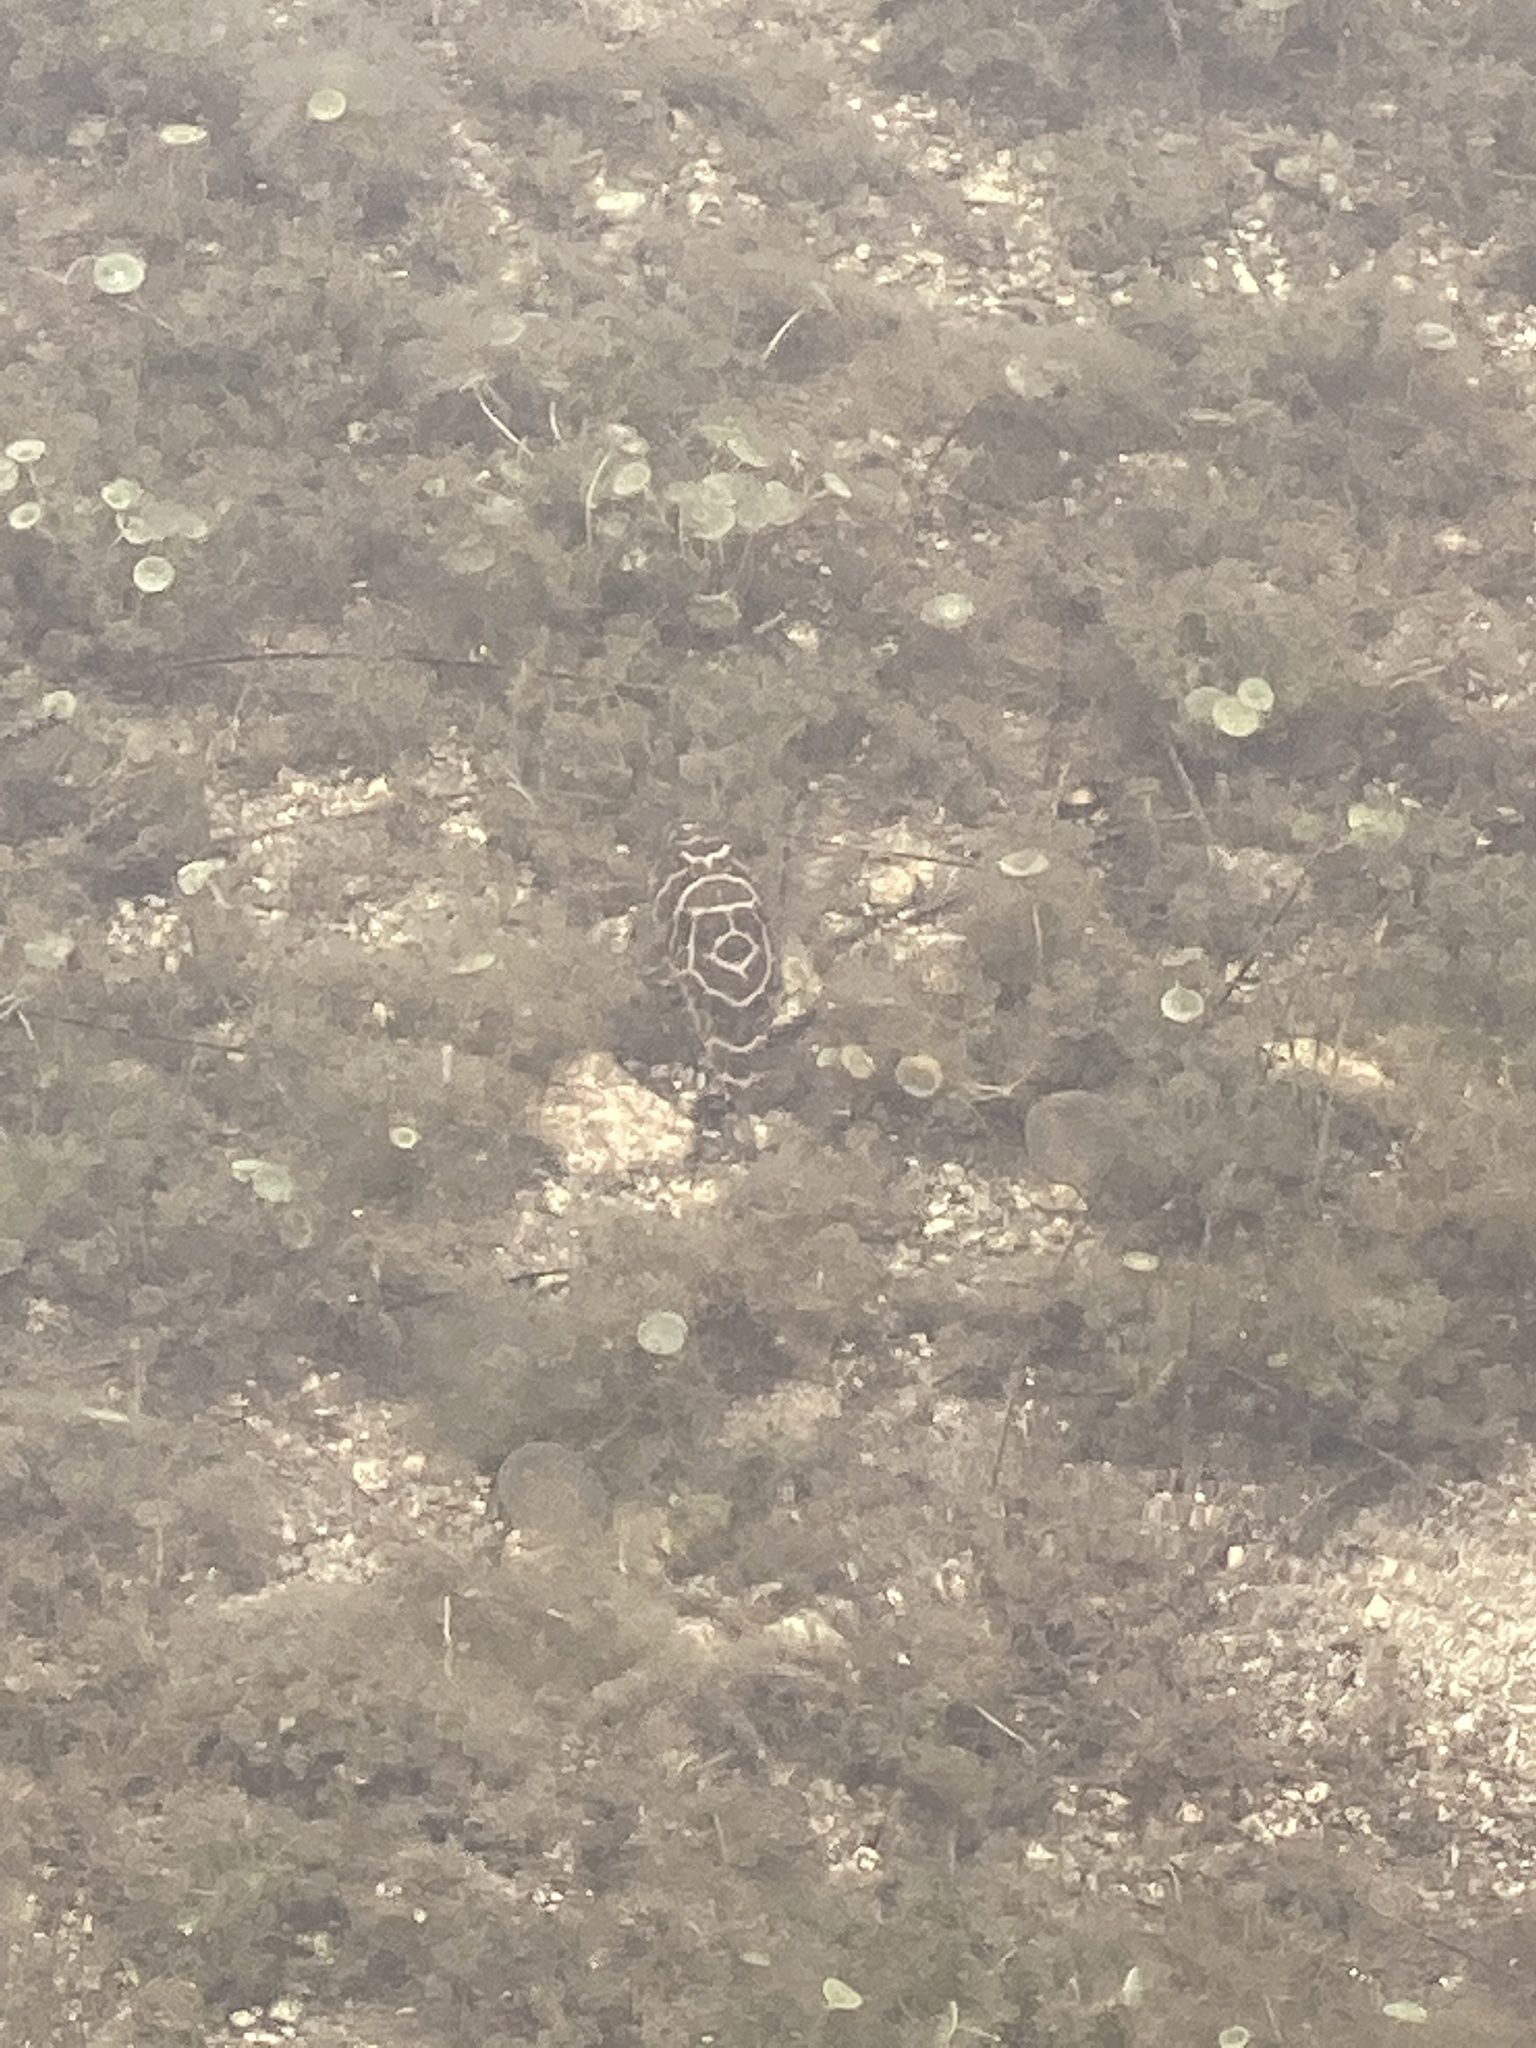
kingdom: Animalia
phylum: Chordata
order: Tetraodontiformes
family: Tetraodontidae
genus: Sphoeroides
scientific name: Sphoeroides testudineus
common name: Checkered puffer
